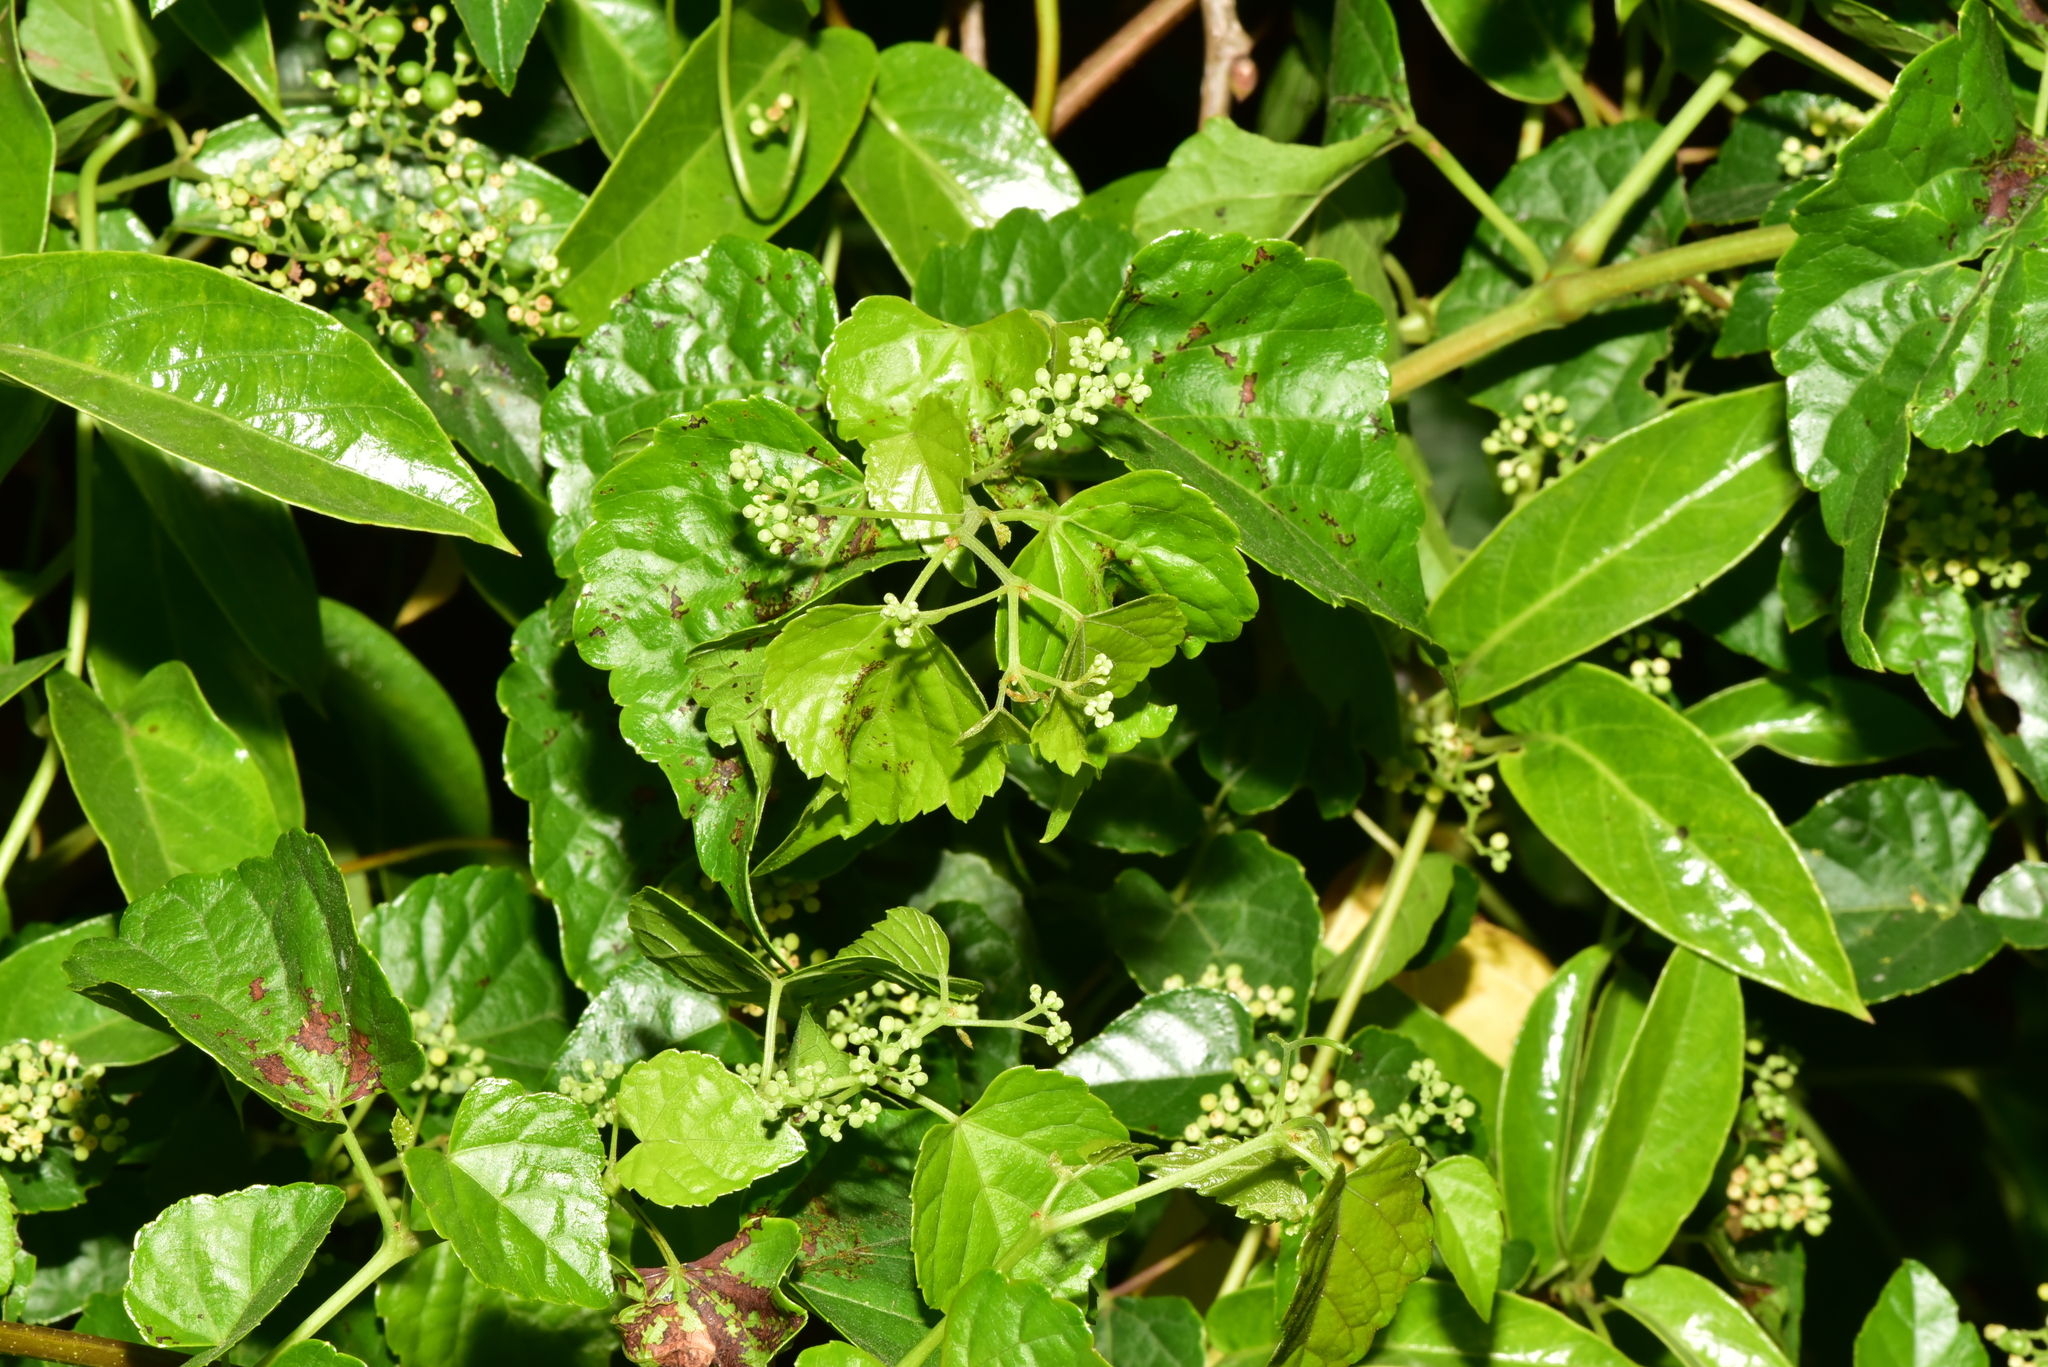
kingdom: Plantae
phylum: Tracheophyta
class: Magnoliopsida
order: Vitales
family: Vitaceae
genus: Ampelopsis
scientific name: Ampelopsis glandulosa
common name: Amur peppervine
